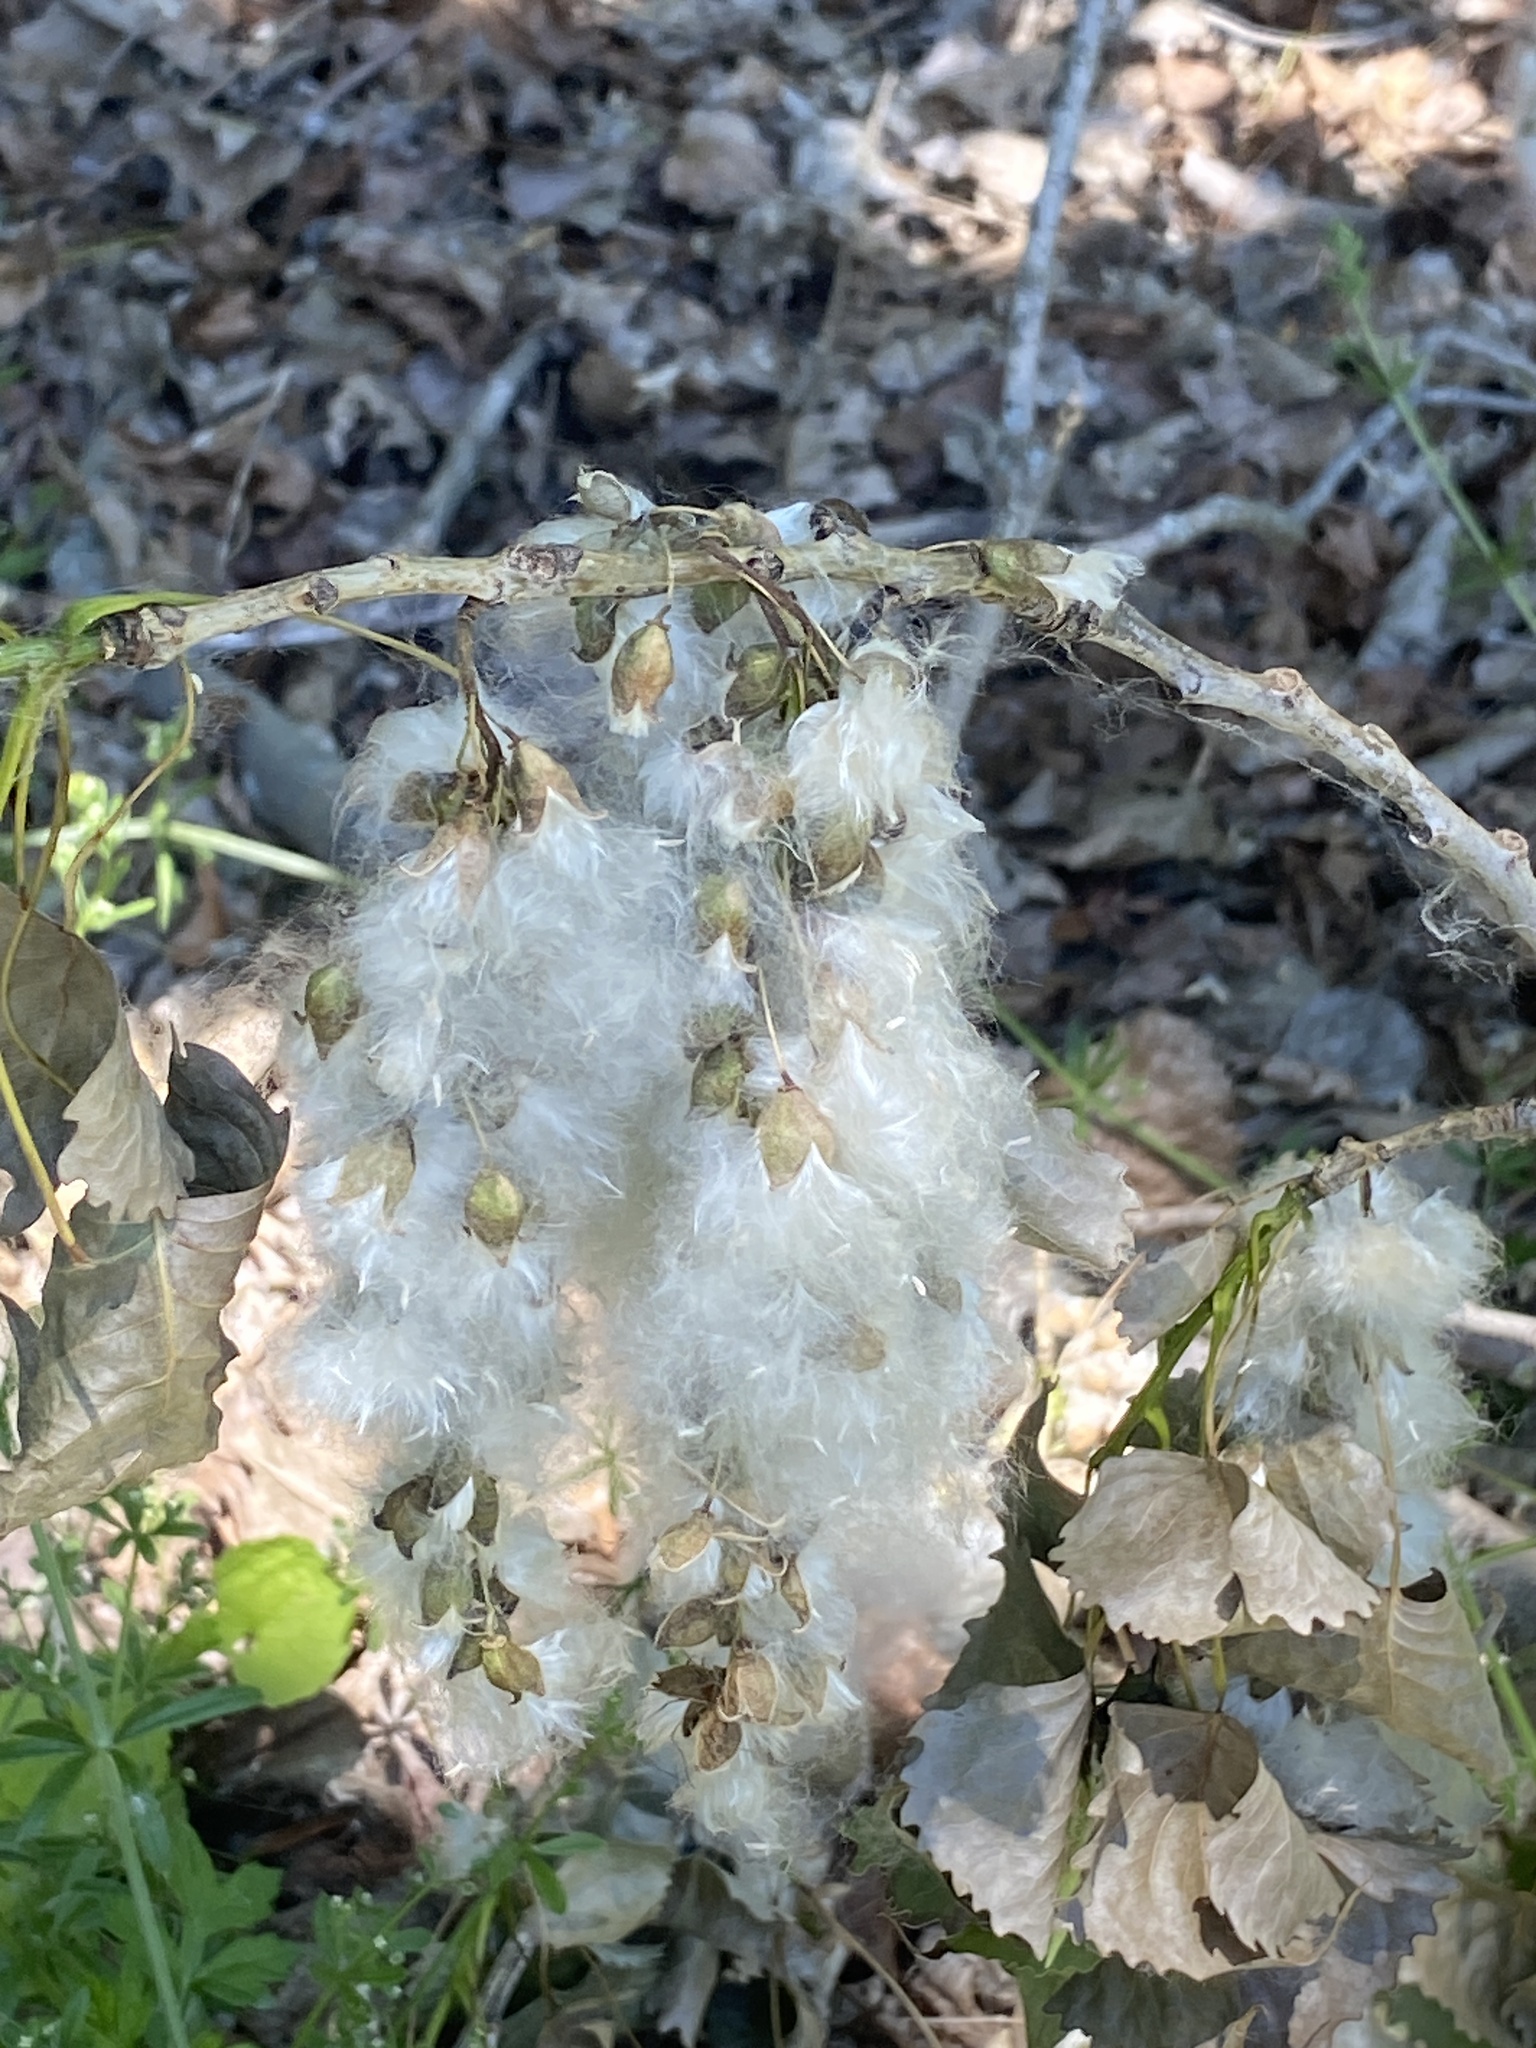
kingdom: Plantae
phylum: Tracheophyta
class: Magnoliopsida
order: Malpighiales
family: Salicaceae
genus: Populus
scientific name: Populus deltoides
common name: Eastern cottonwood
